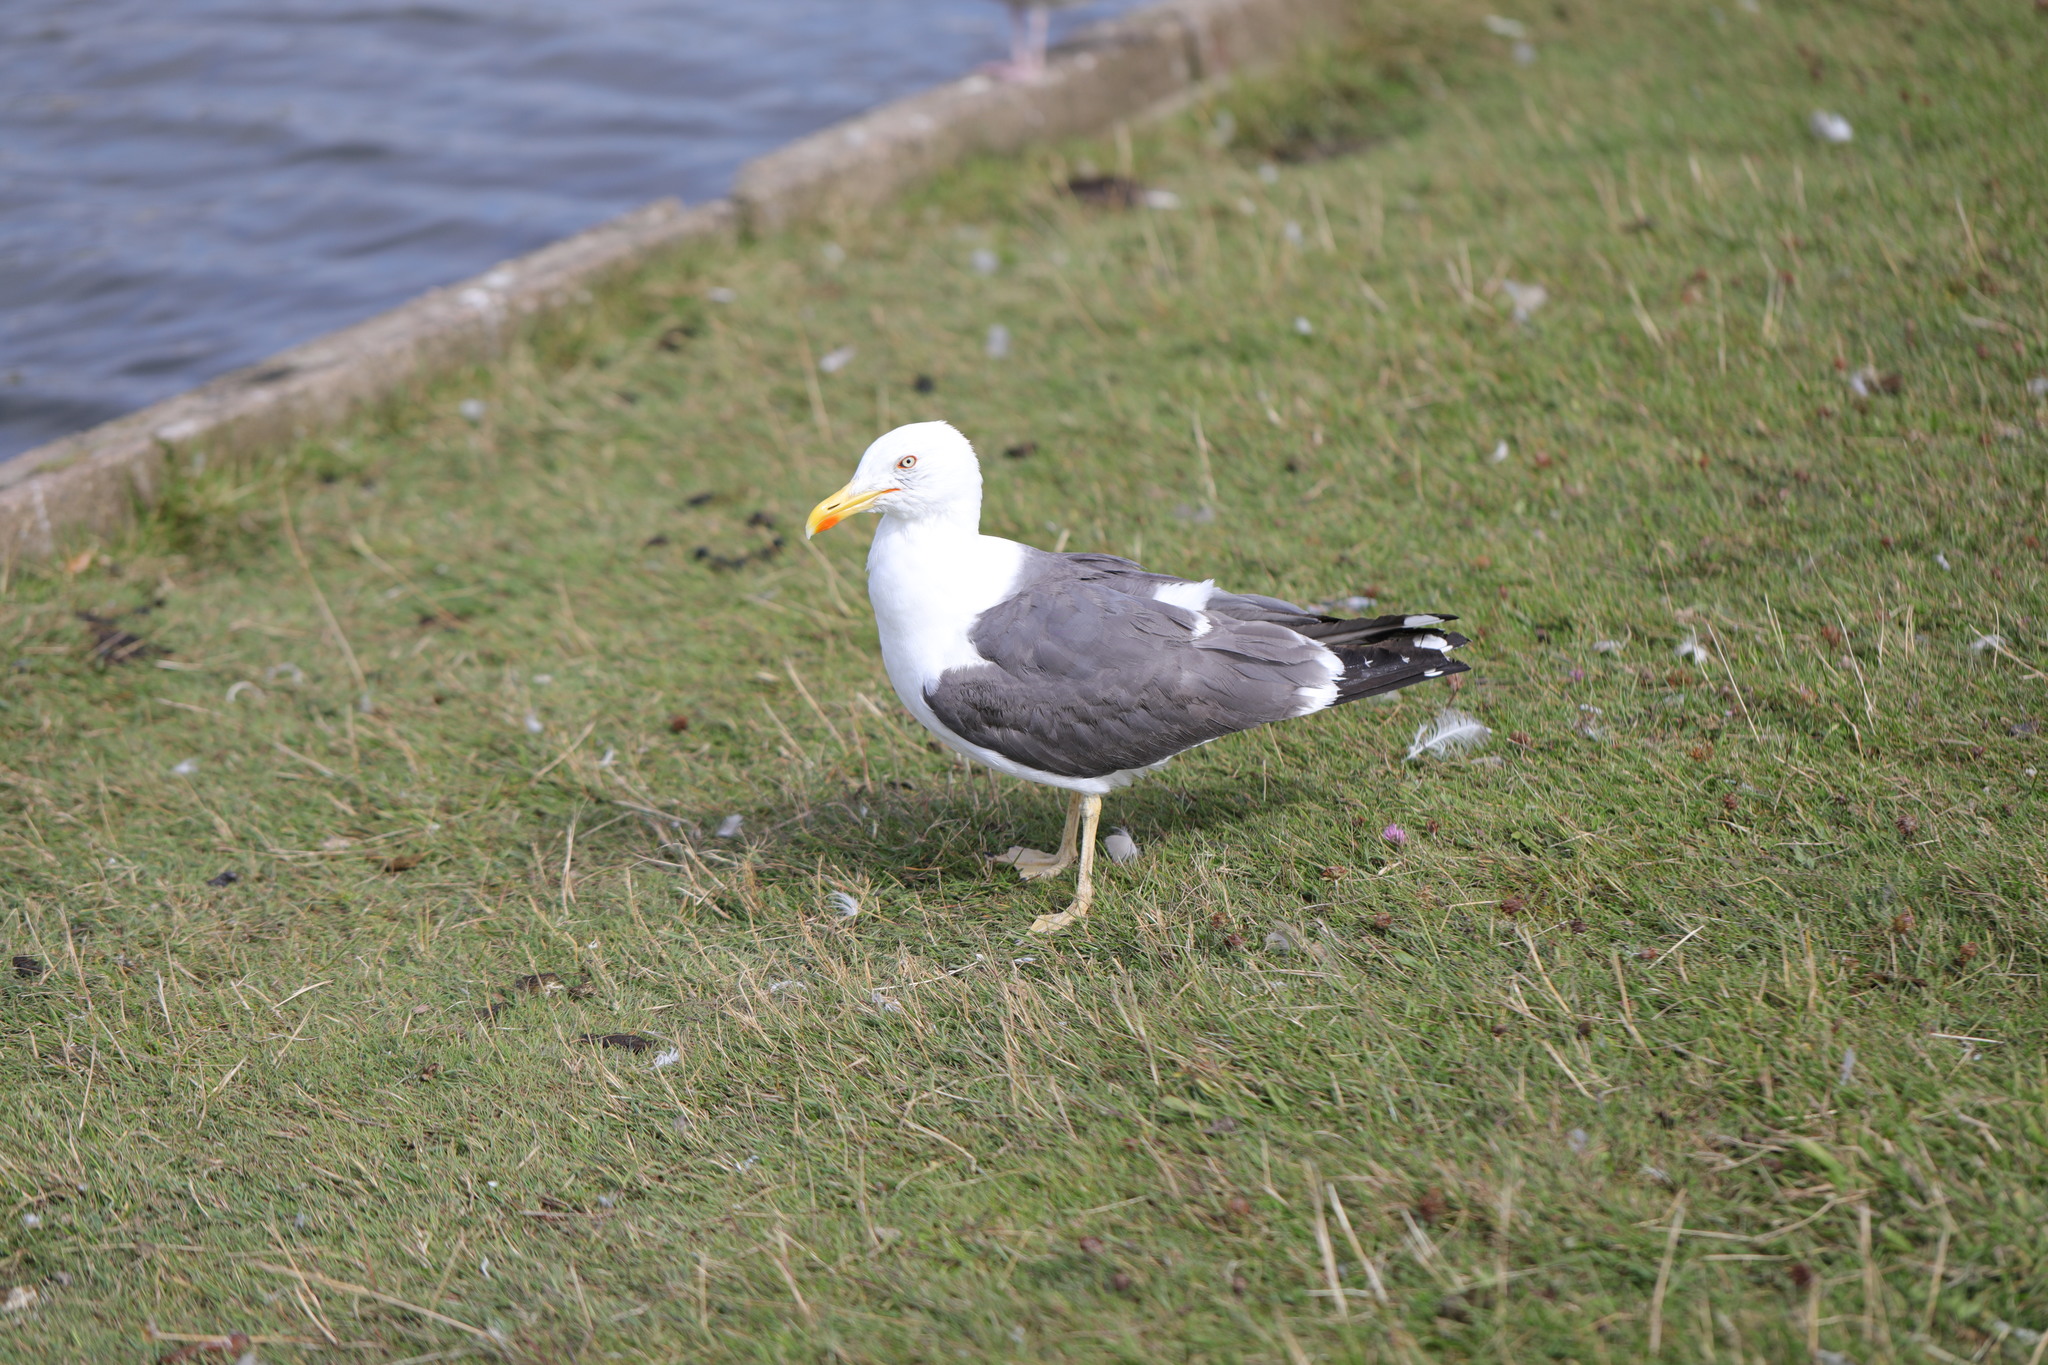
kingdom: Animalia
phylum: Chordata
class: Aves
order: Charadriiformes
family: Laridae
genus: Larus
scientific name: Larus fuscus
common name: Lesser black-backed gull
